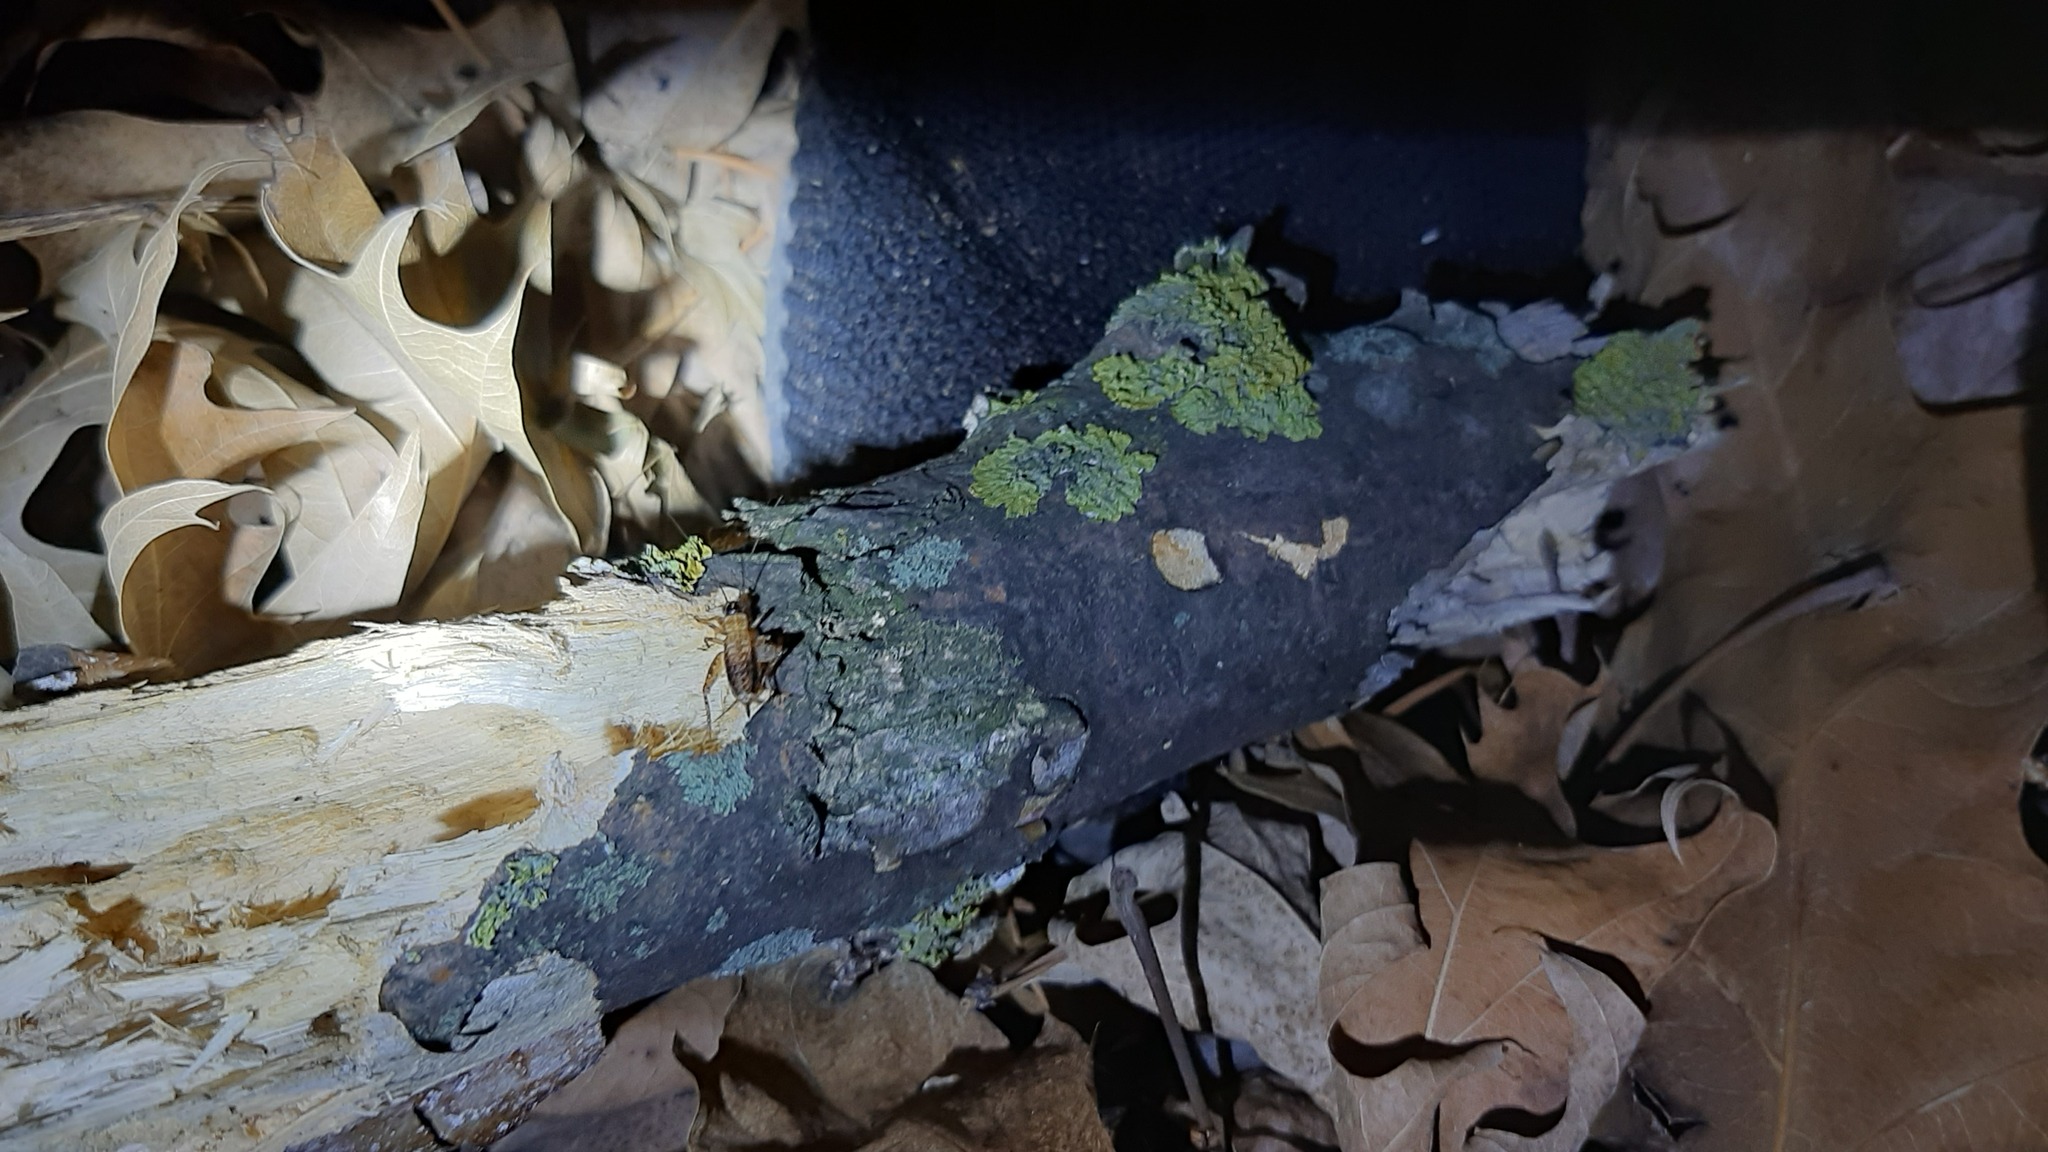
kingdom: Animalia
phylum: Arthropoda
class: Insecta
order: Orthoptera
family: Trigonidiidae
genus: Nemobius
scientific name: Nemobius sylvestris
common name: Wood-cricket
